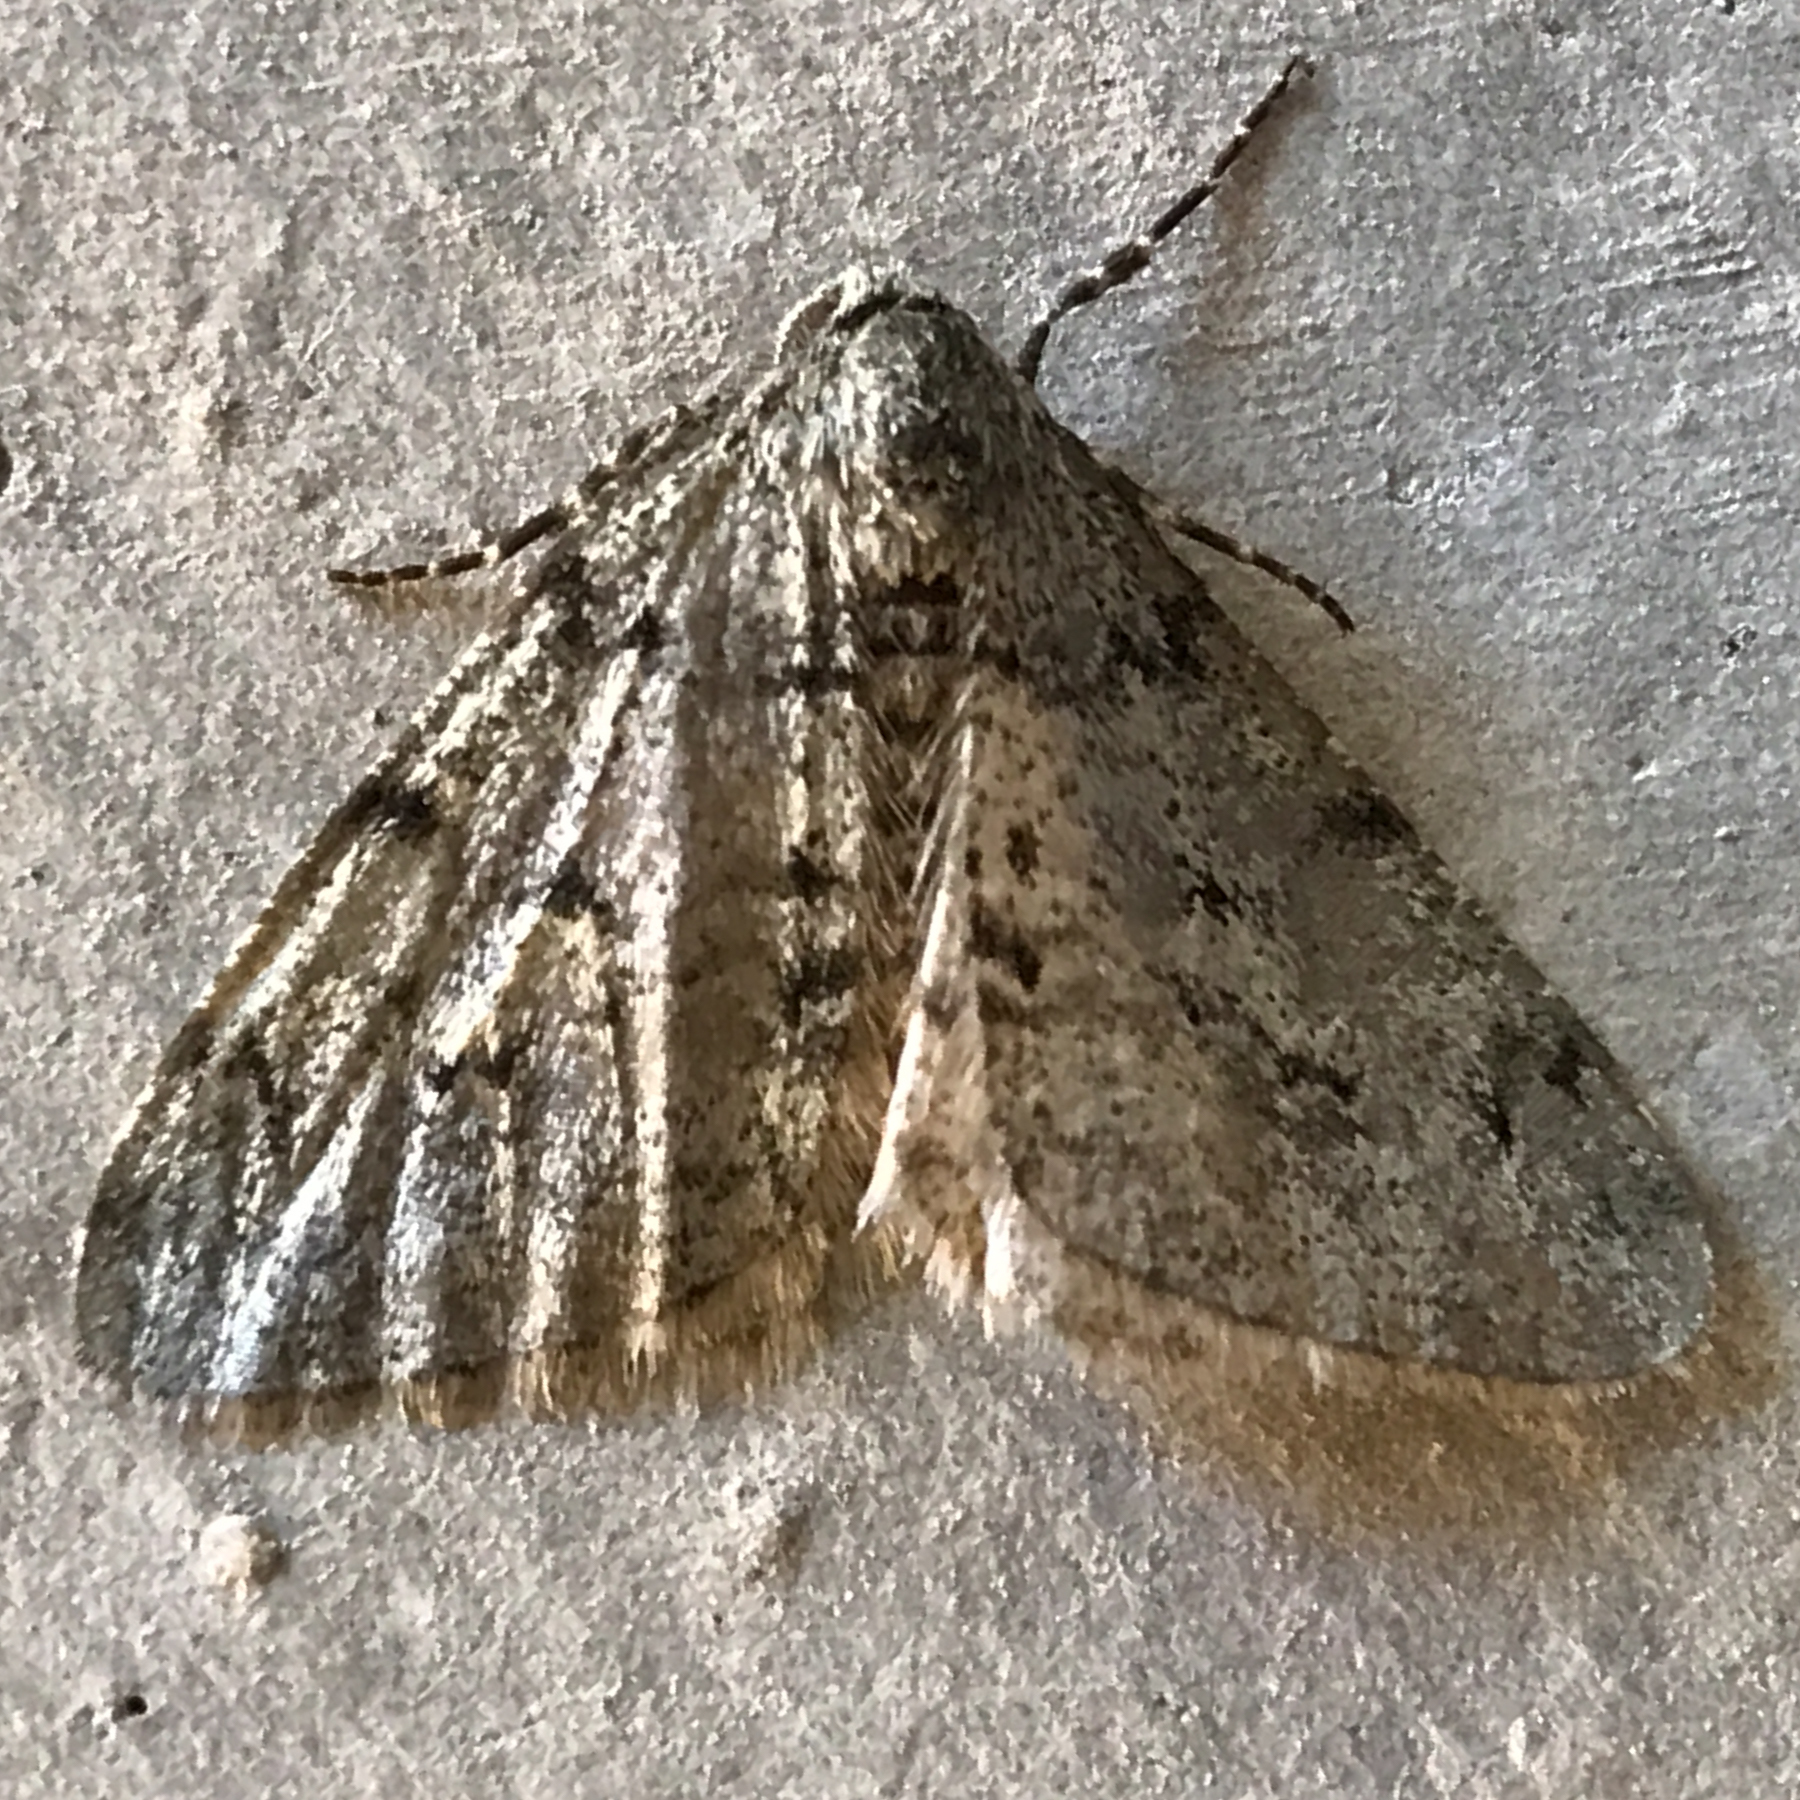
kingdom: Animalia
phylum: Arthropoda
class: Insecta
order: Lepidoptera
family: Geometridae
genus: Phigalia
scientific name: Phigalia strigataria
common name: Small phigalia
